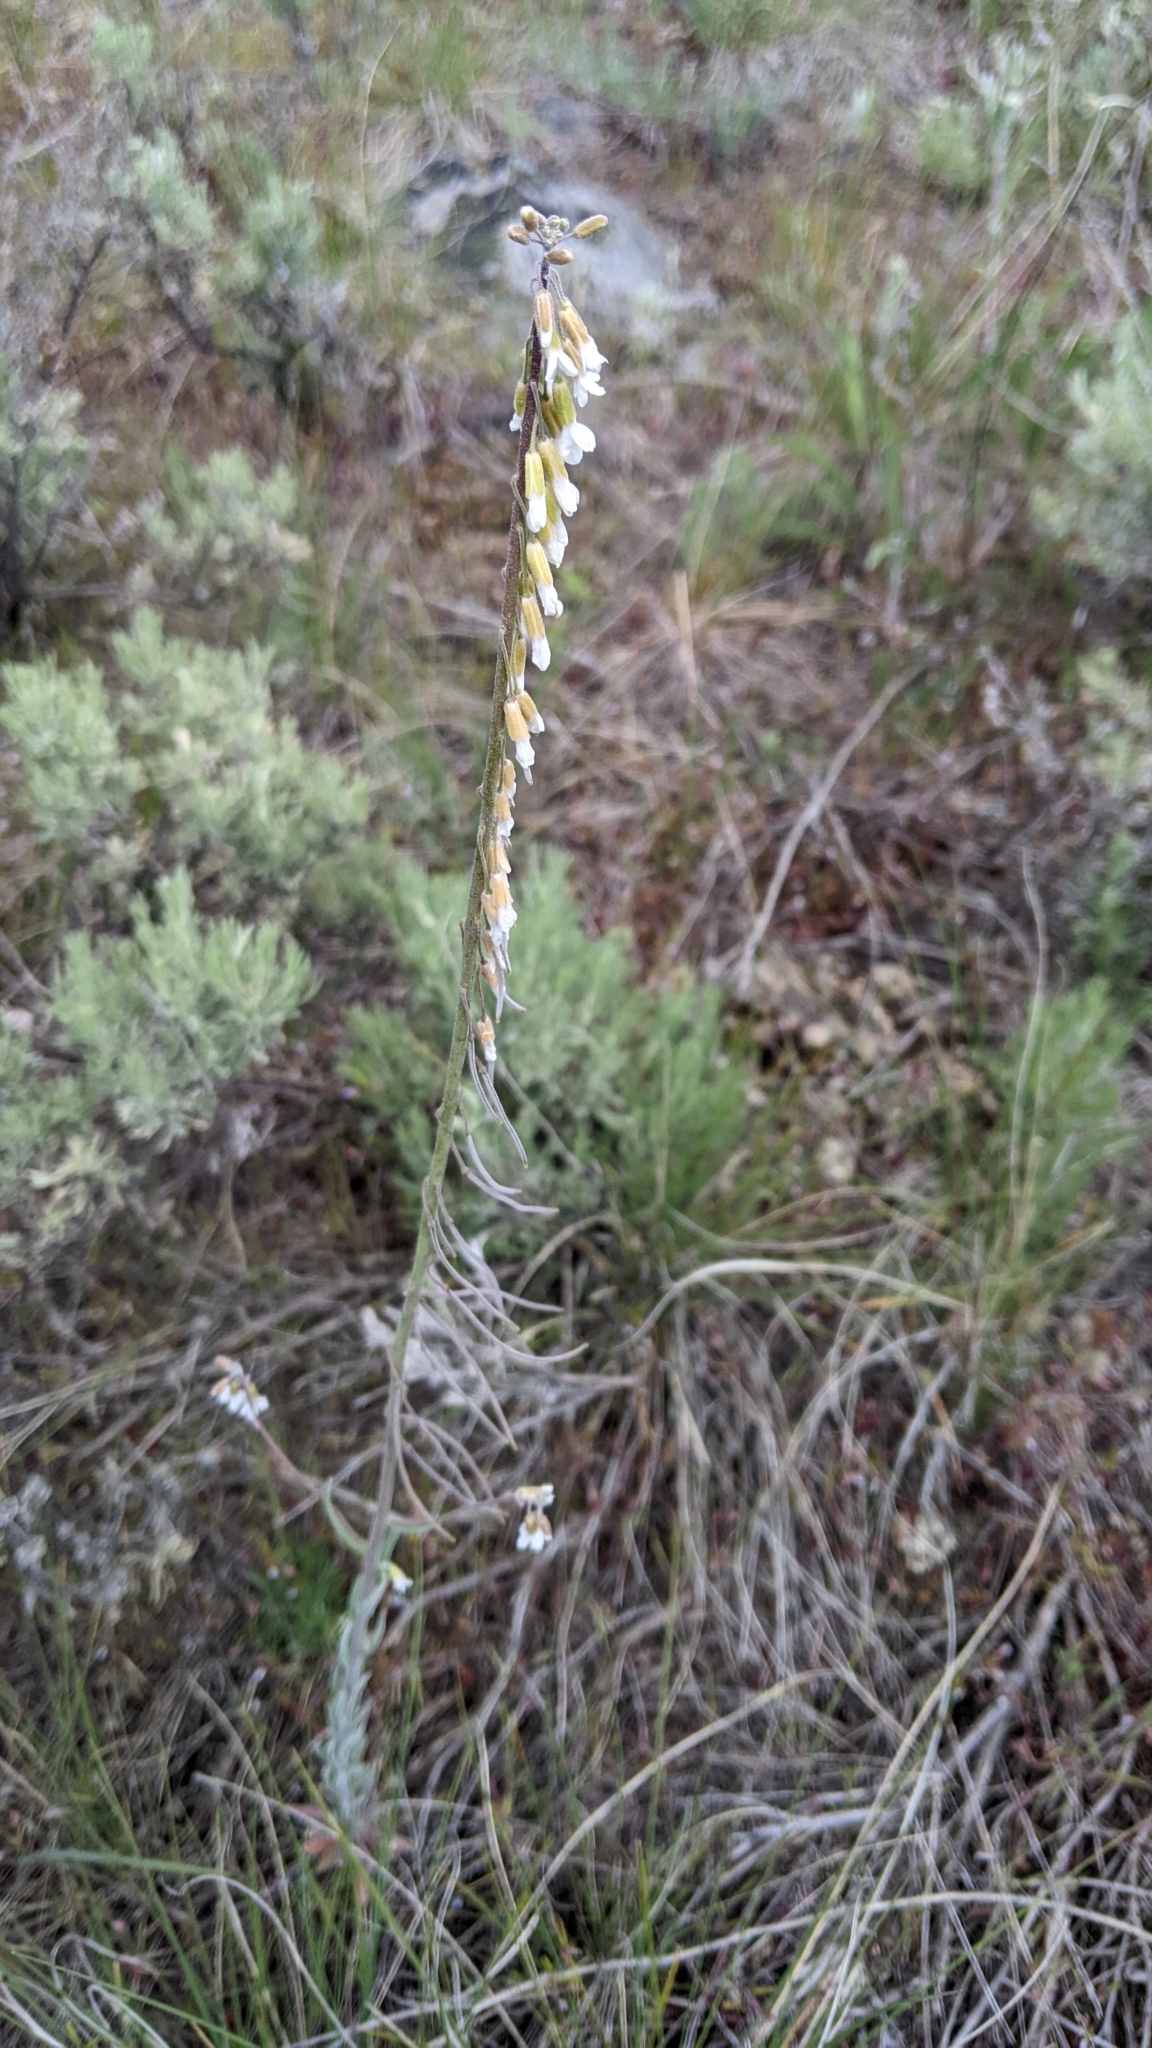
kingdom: Plantae
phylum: Tracheophyta
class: Magnoliopsida
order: Brassicales
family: Brassicaceae
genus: Boechera
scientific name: Boechera retrofracta
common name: Dangling suncress
